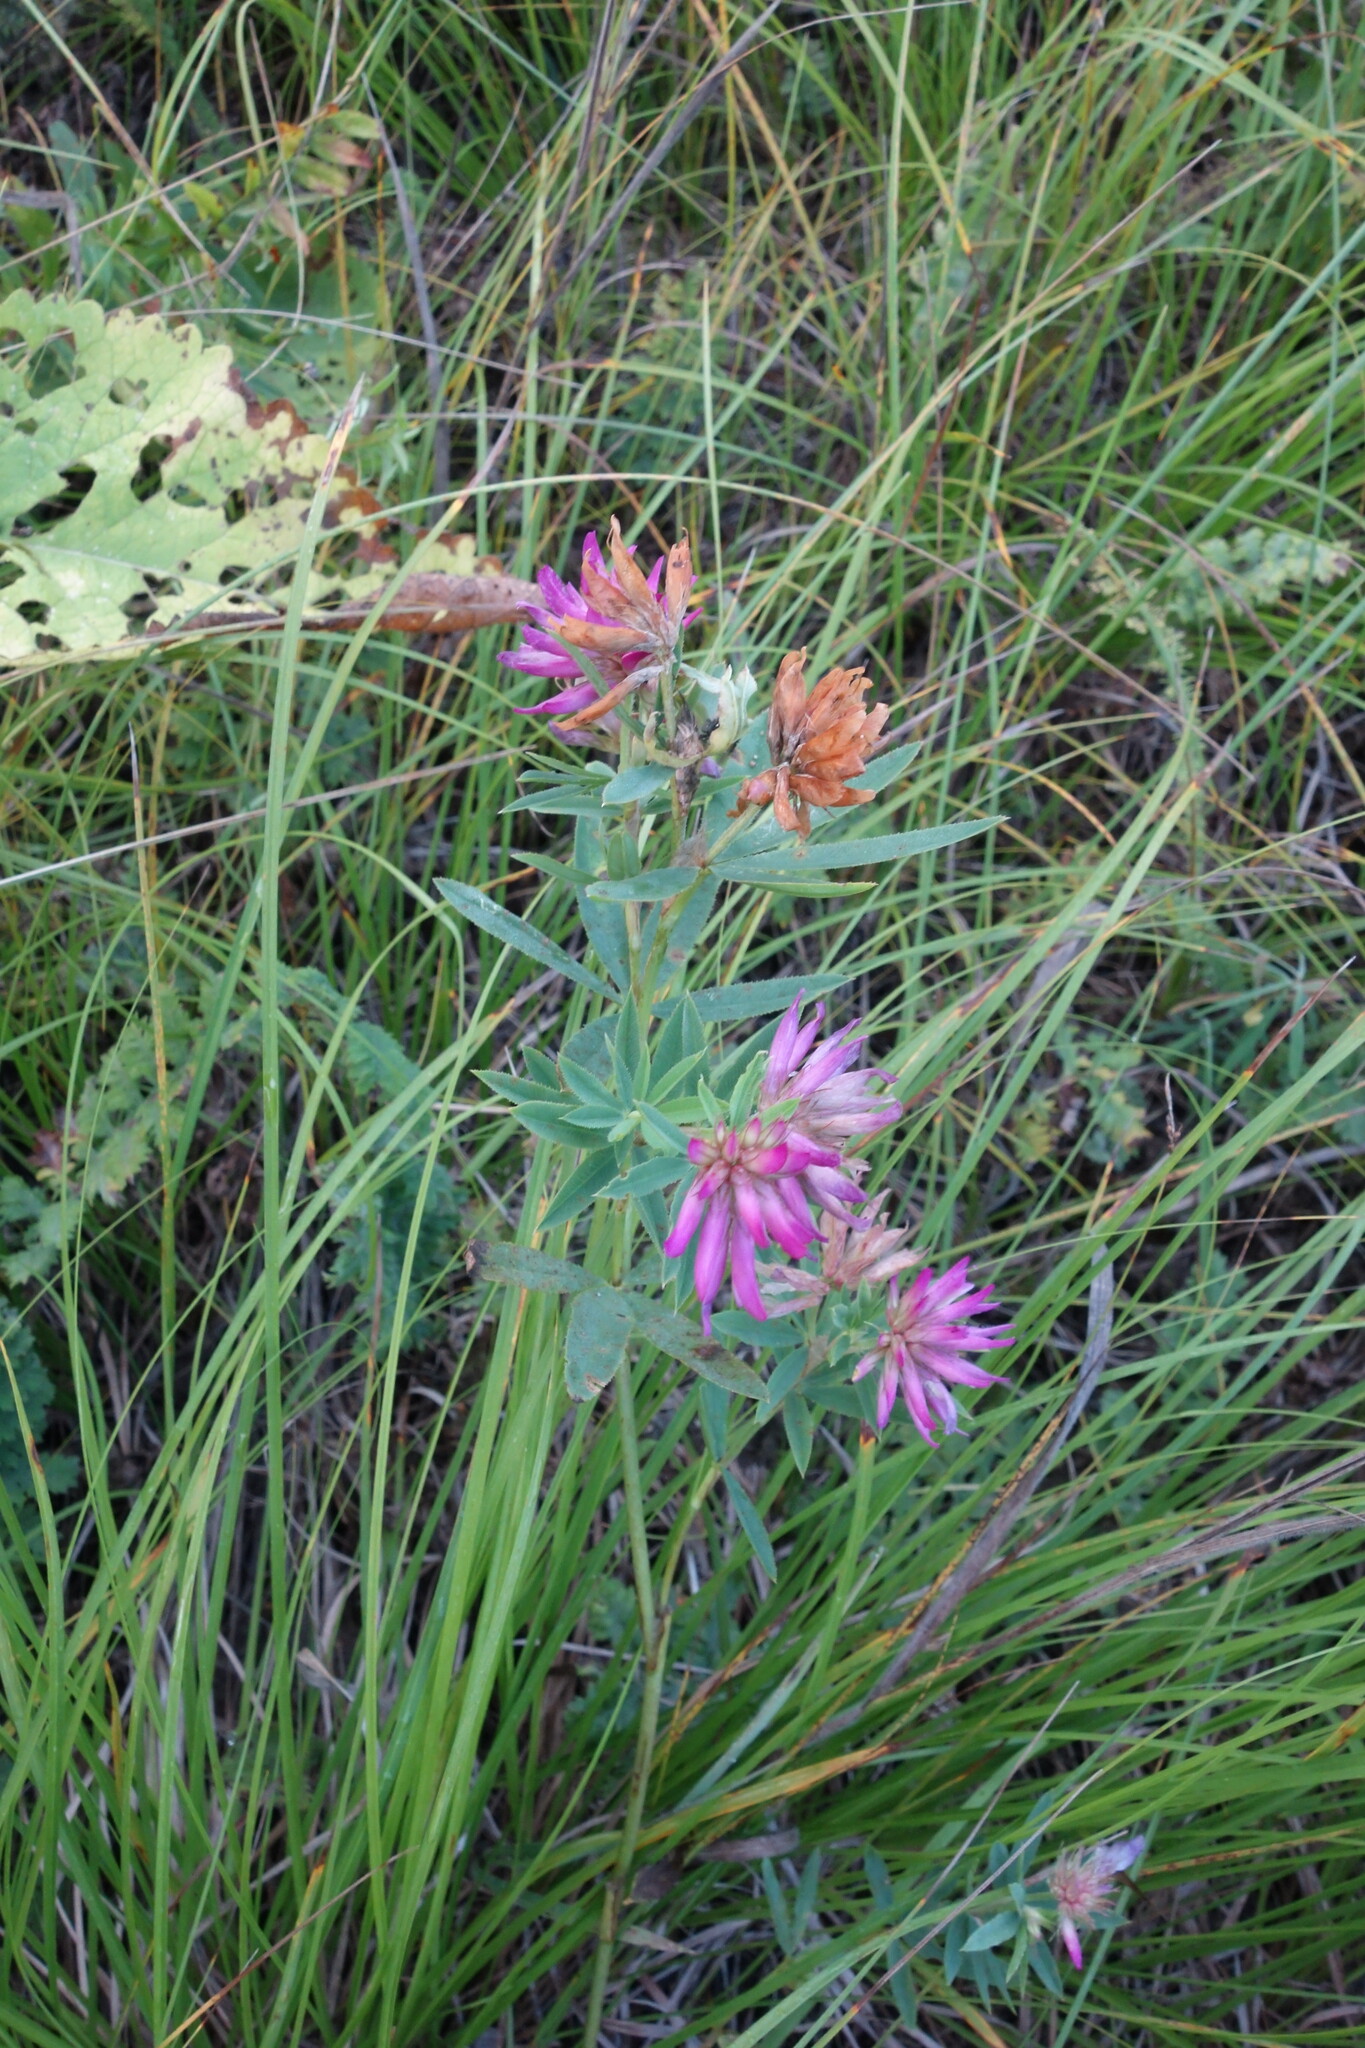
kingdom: Plantae
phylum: Tracheophyta
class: Magnoliopsida
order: Fabales
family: Fabaceae
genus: Trifolium
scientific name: Trifolium lupinaster
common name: Lupine clover
